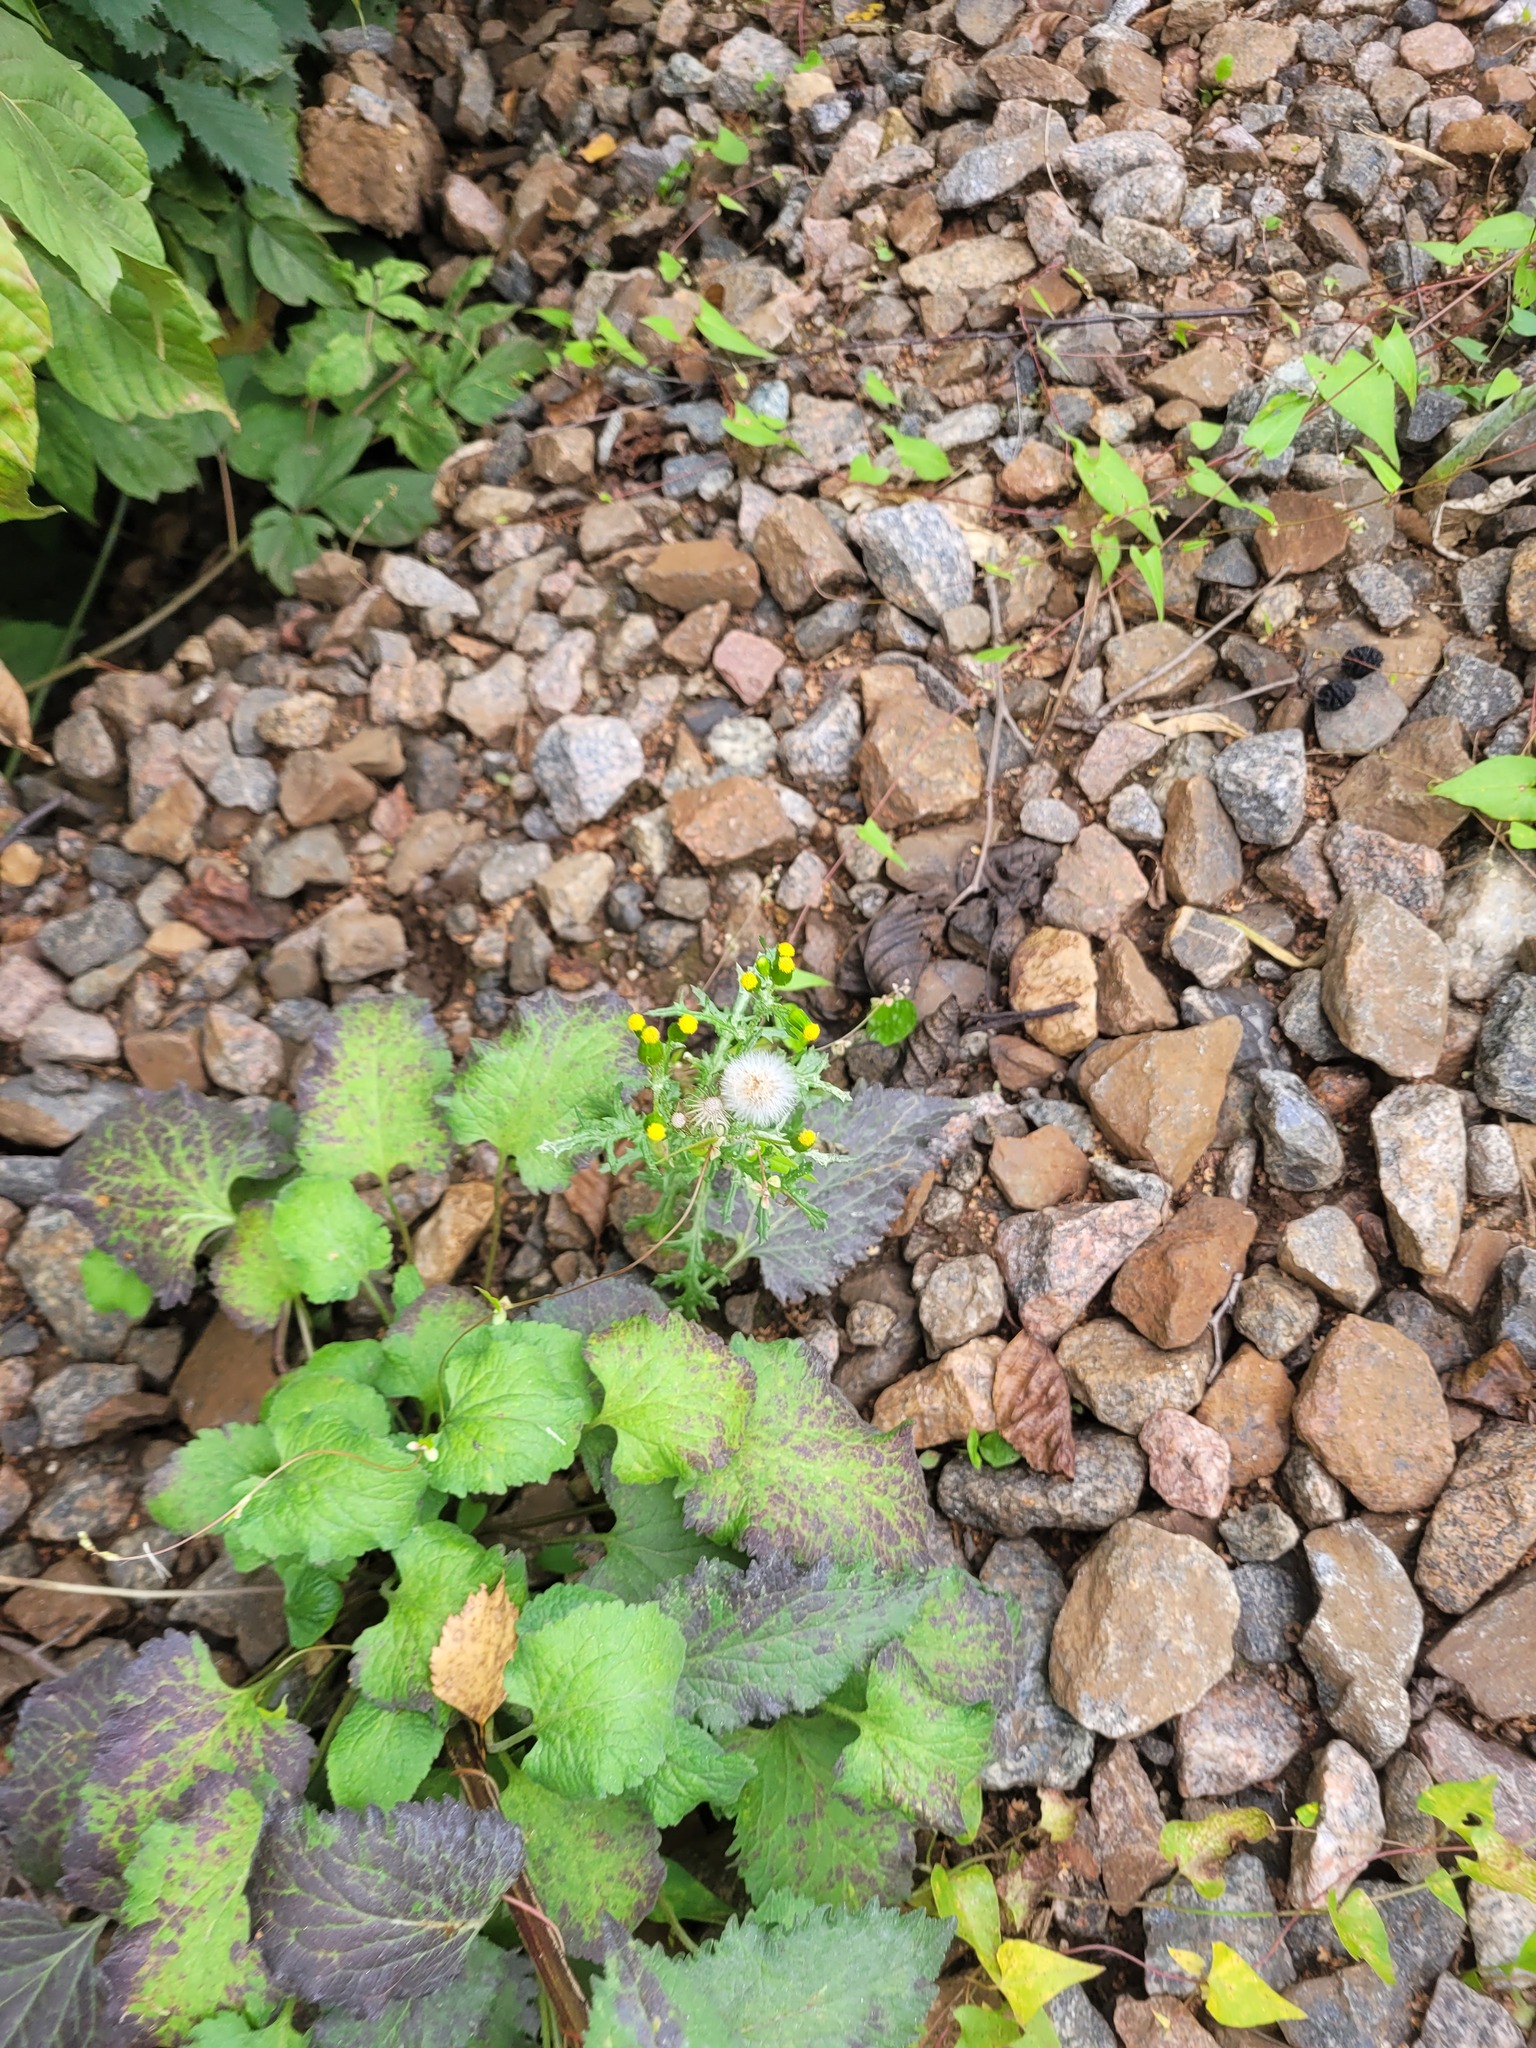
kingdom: Plantae
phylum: Tracheophyta
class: Magnoliopsida
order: Asterales
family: Asteraceae
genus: Senecio
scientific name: Senecio vulgaris
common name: Old-man-in-the-spring
